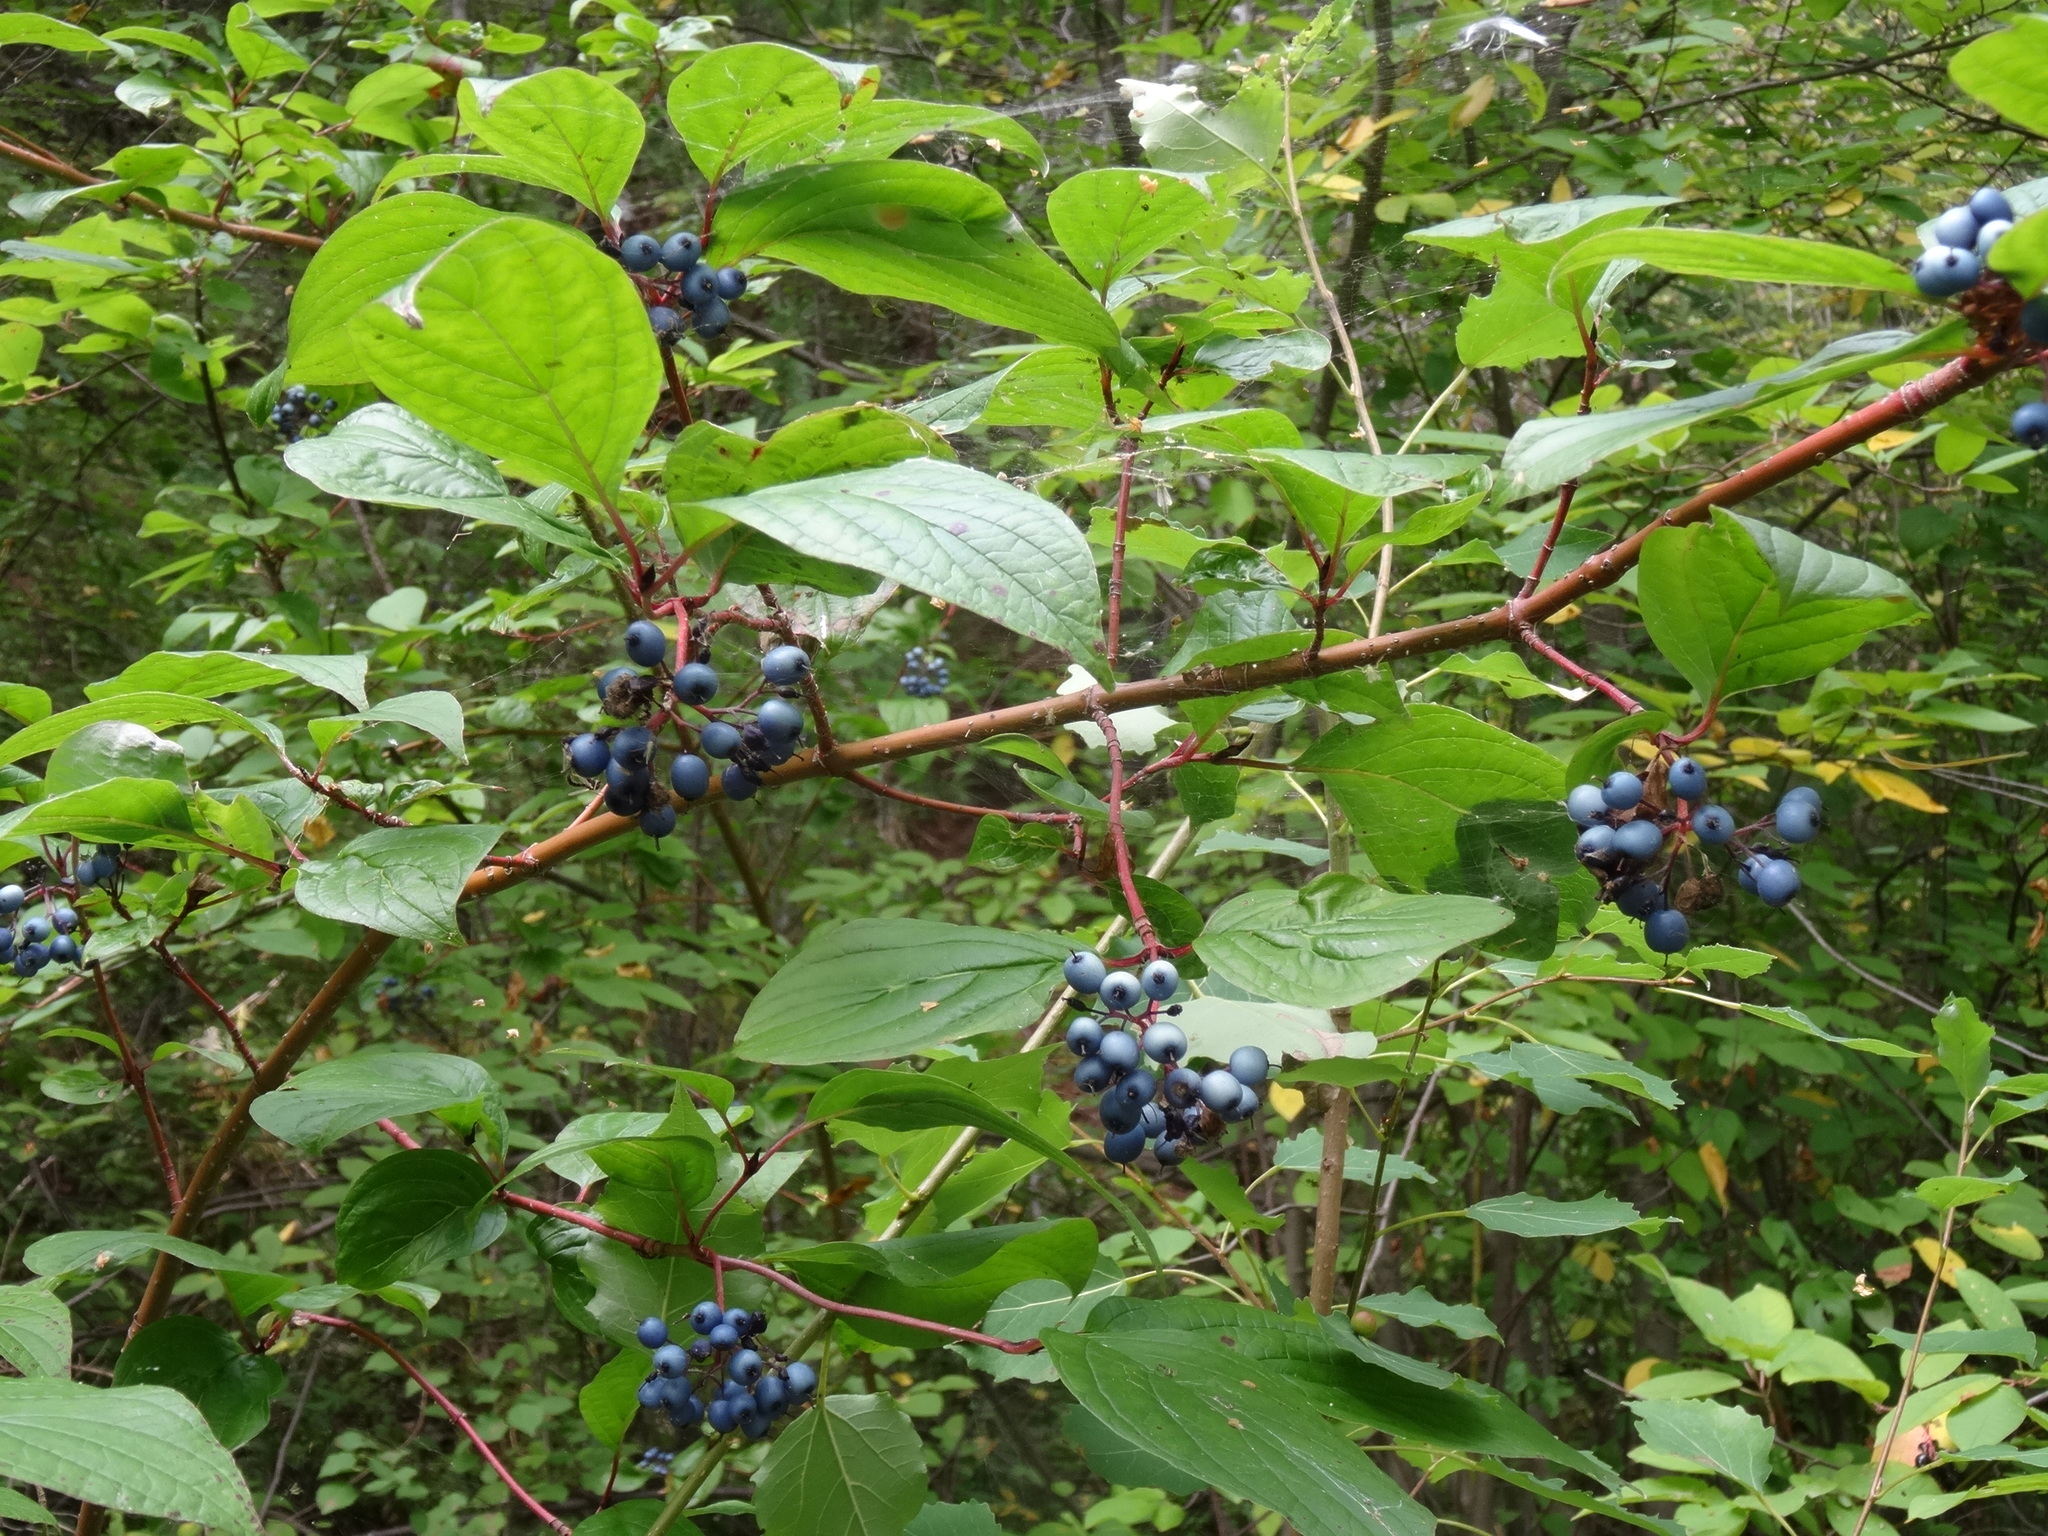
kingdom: Plantae
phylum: Tracheophyta
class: Magnoliopsida
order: Cornales
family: Cornaceae
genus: Cornus
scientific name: Cornus alba
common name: White dogwood
